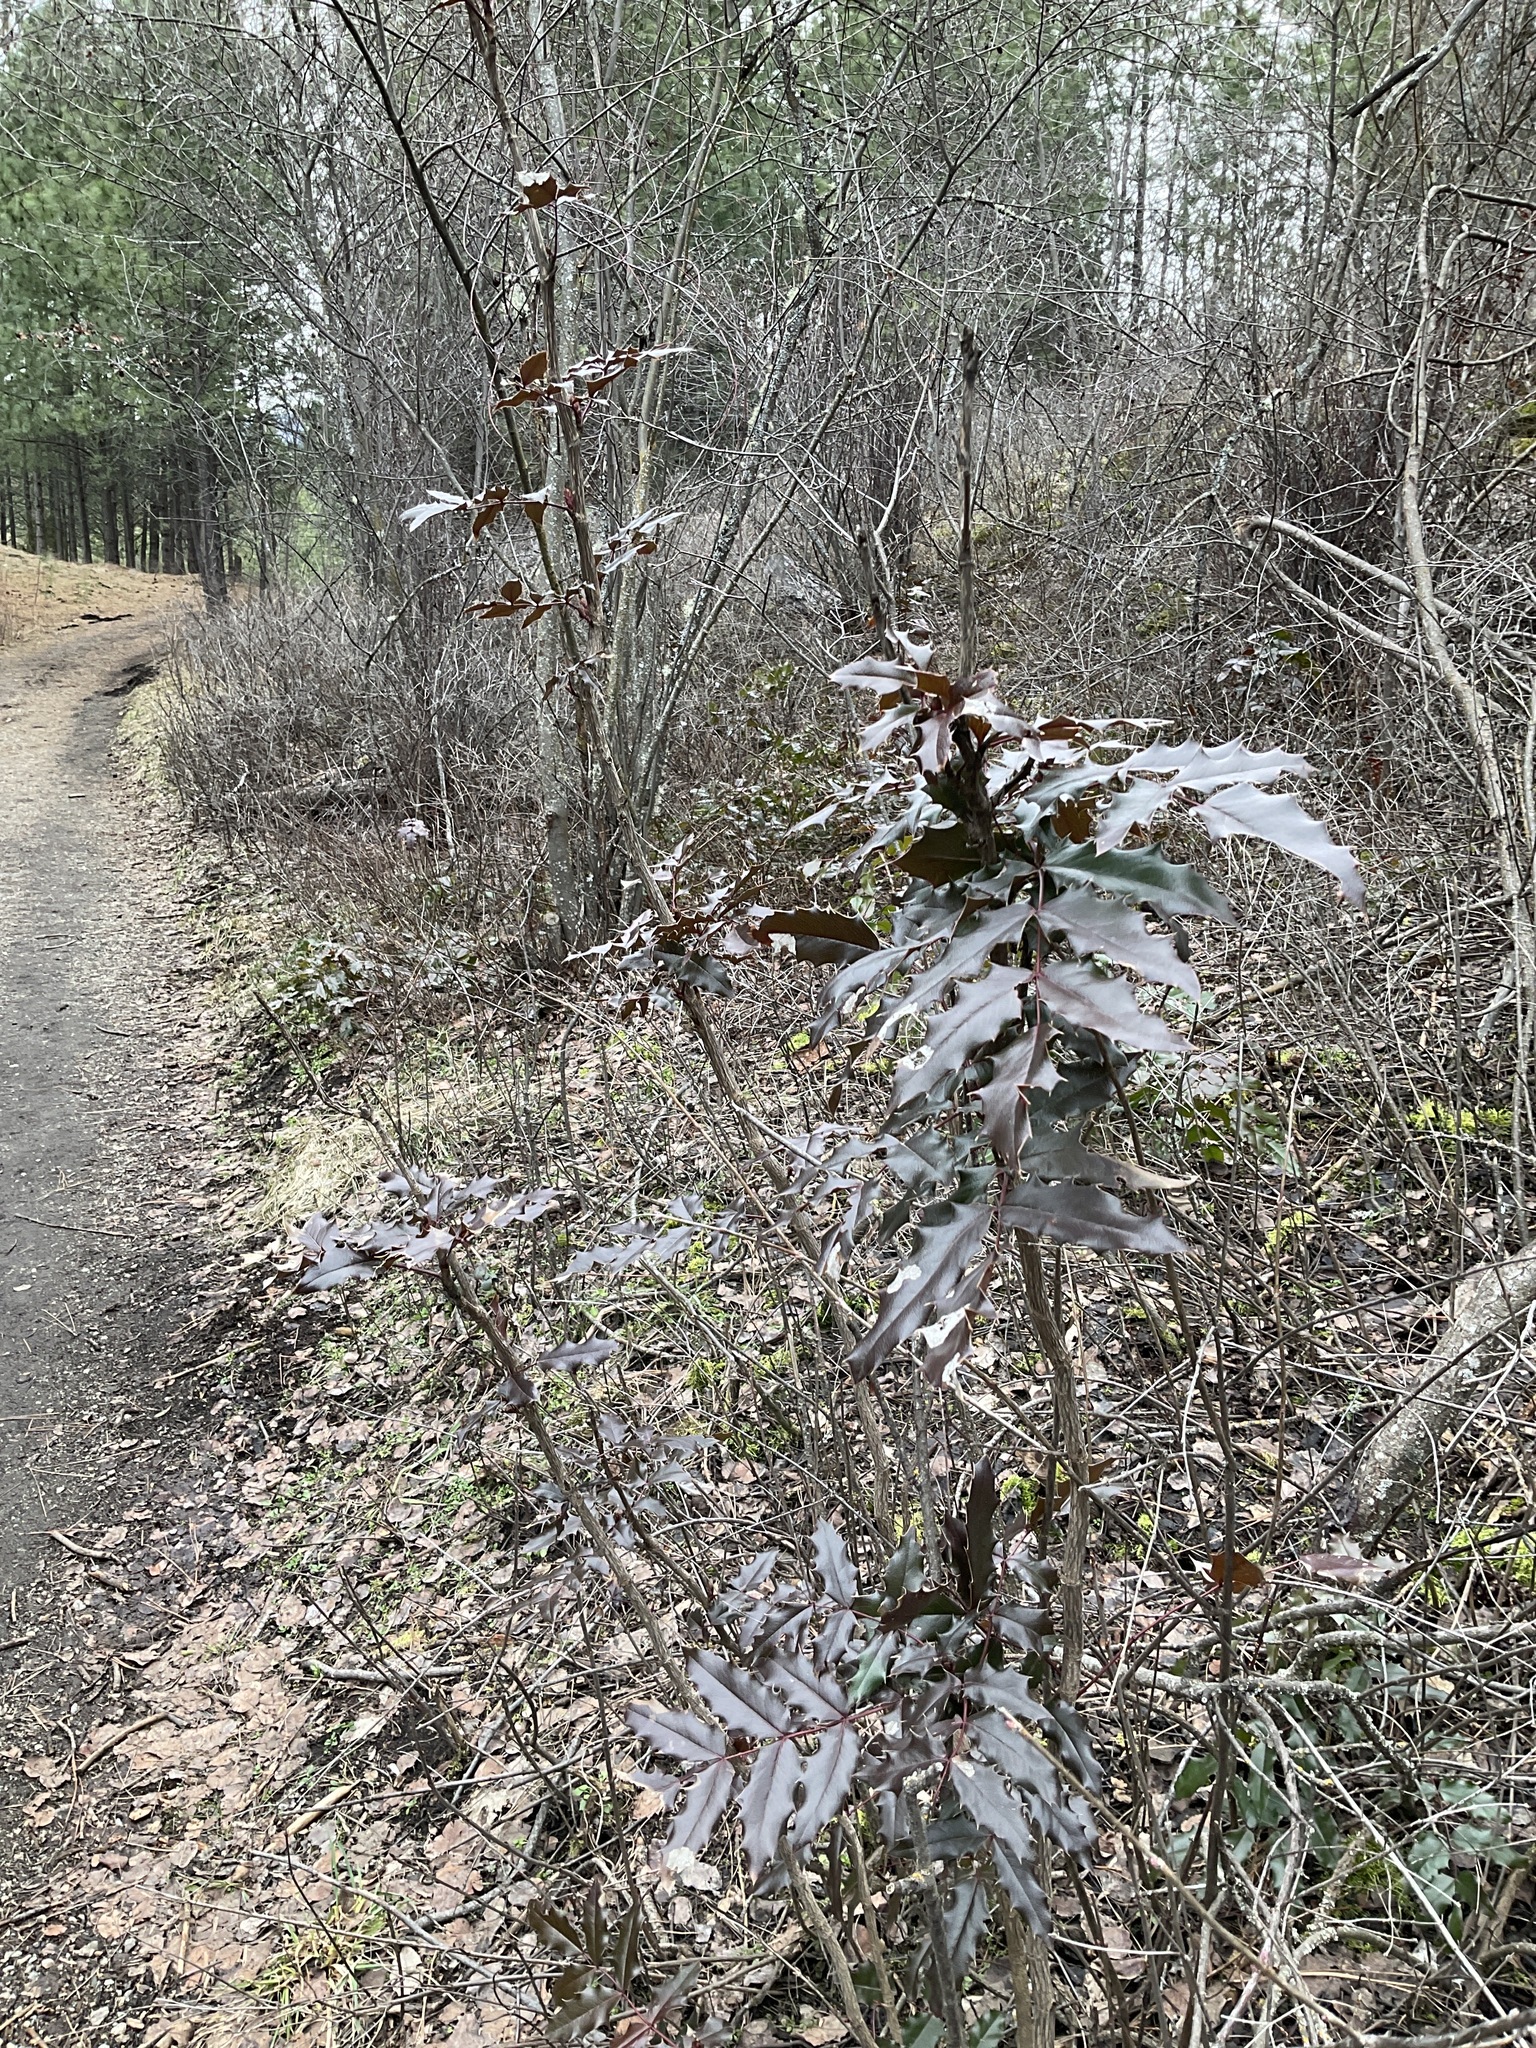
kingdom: Plantae
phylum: Tracheophyta
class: Magnoliopsida
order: Ranunculales
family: Berberidaceae
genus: Mahonia
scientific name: Mahonia aquifolium
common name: Oregon-grape
